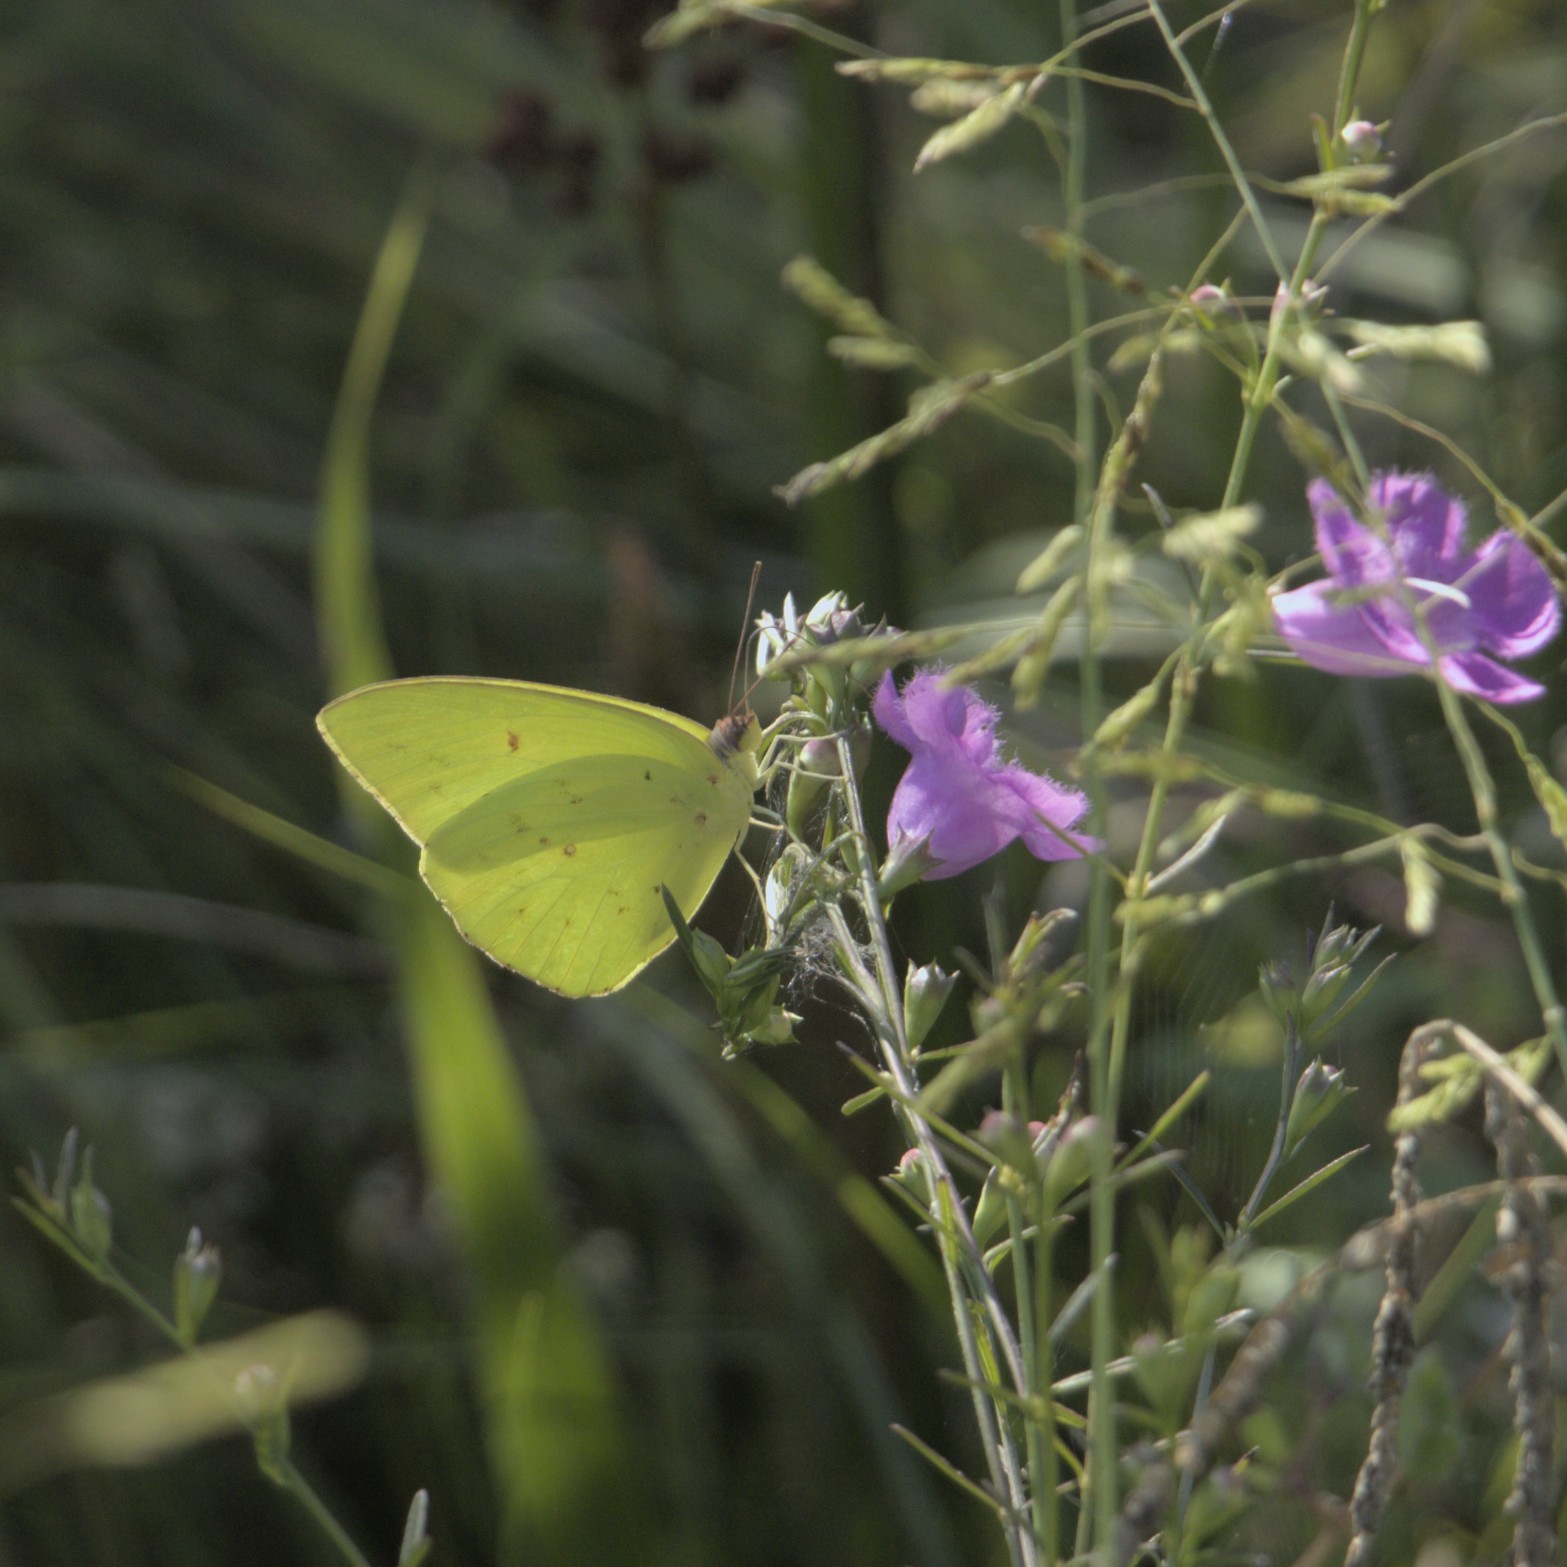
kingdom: Animalia
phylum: Arthropoda
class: Insecta
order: Lepidoptera
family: Pieridae
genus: Phoebis
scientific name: Phoebis sennae
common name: Cloudless sulphur
